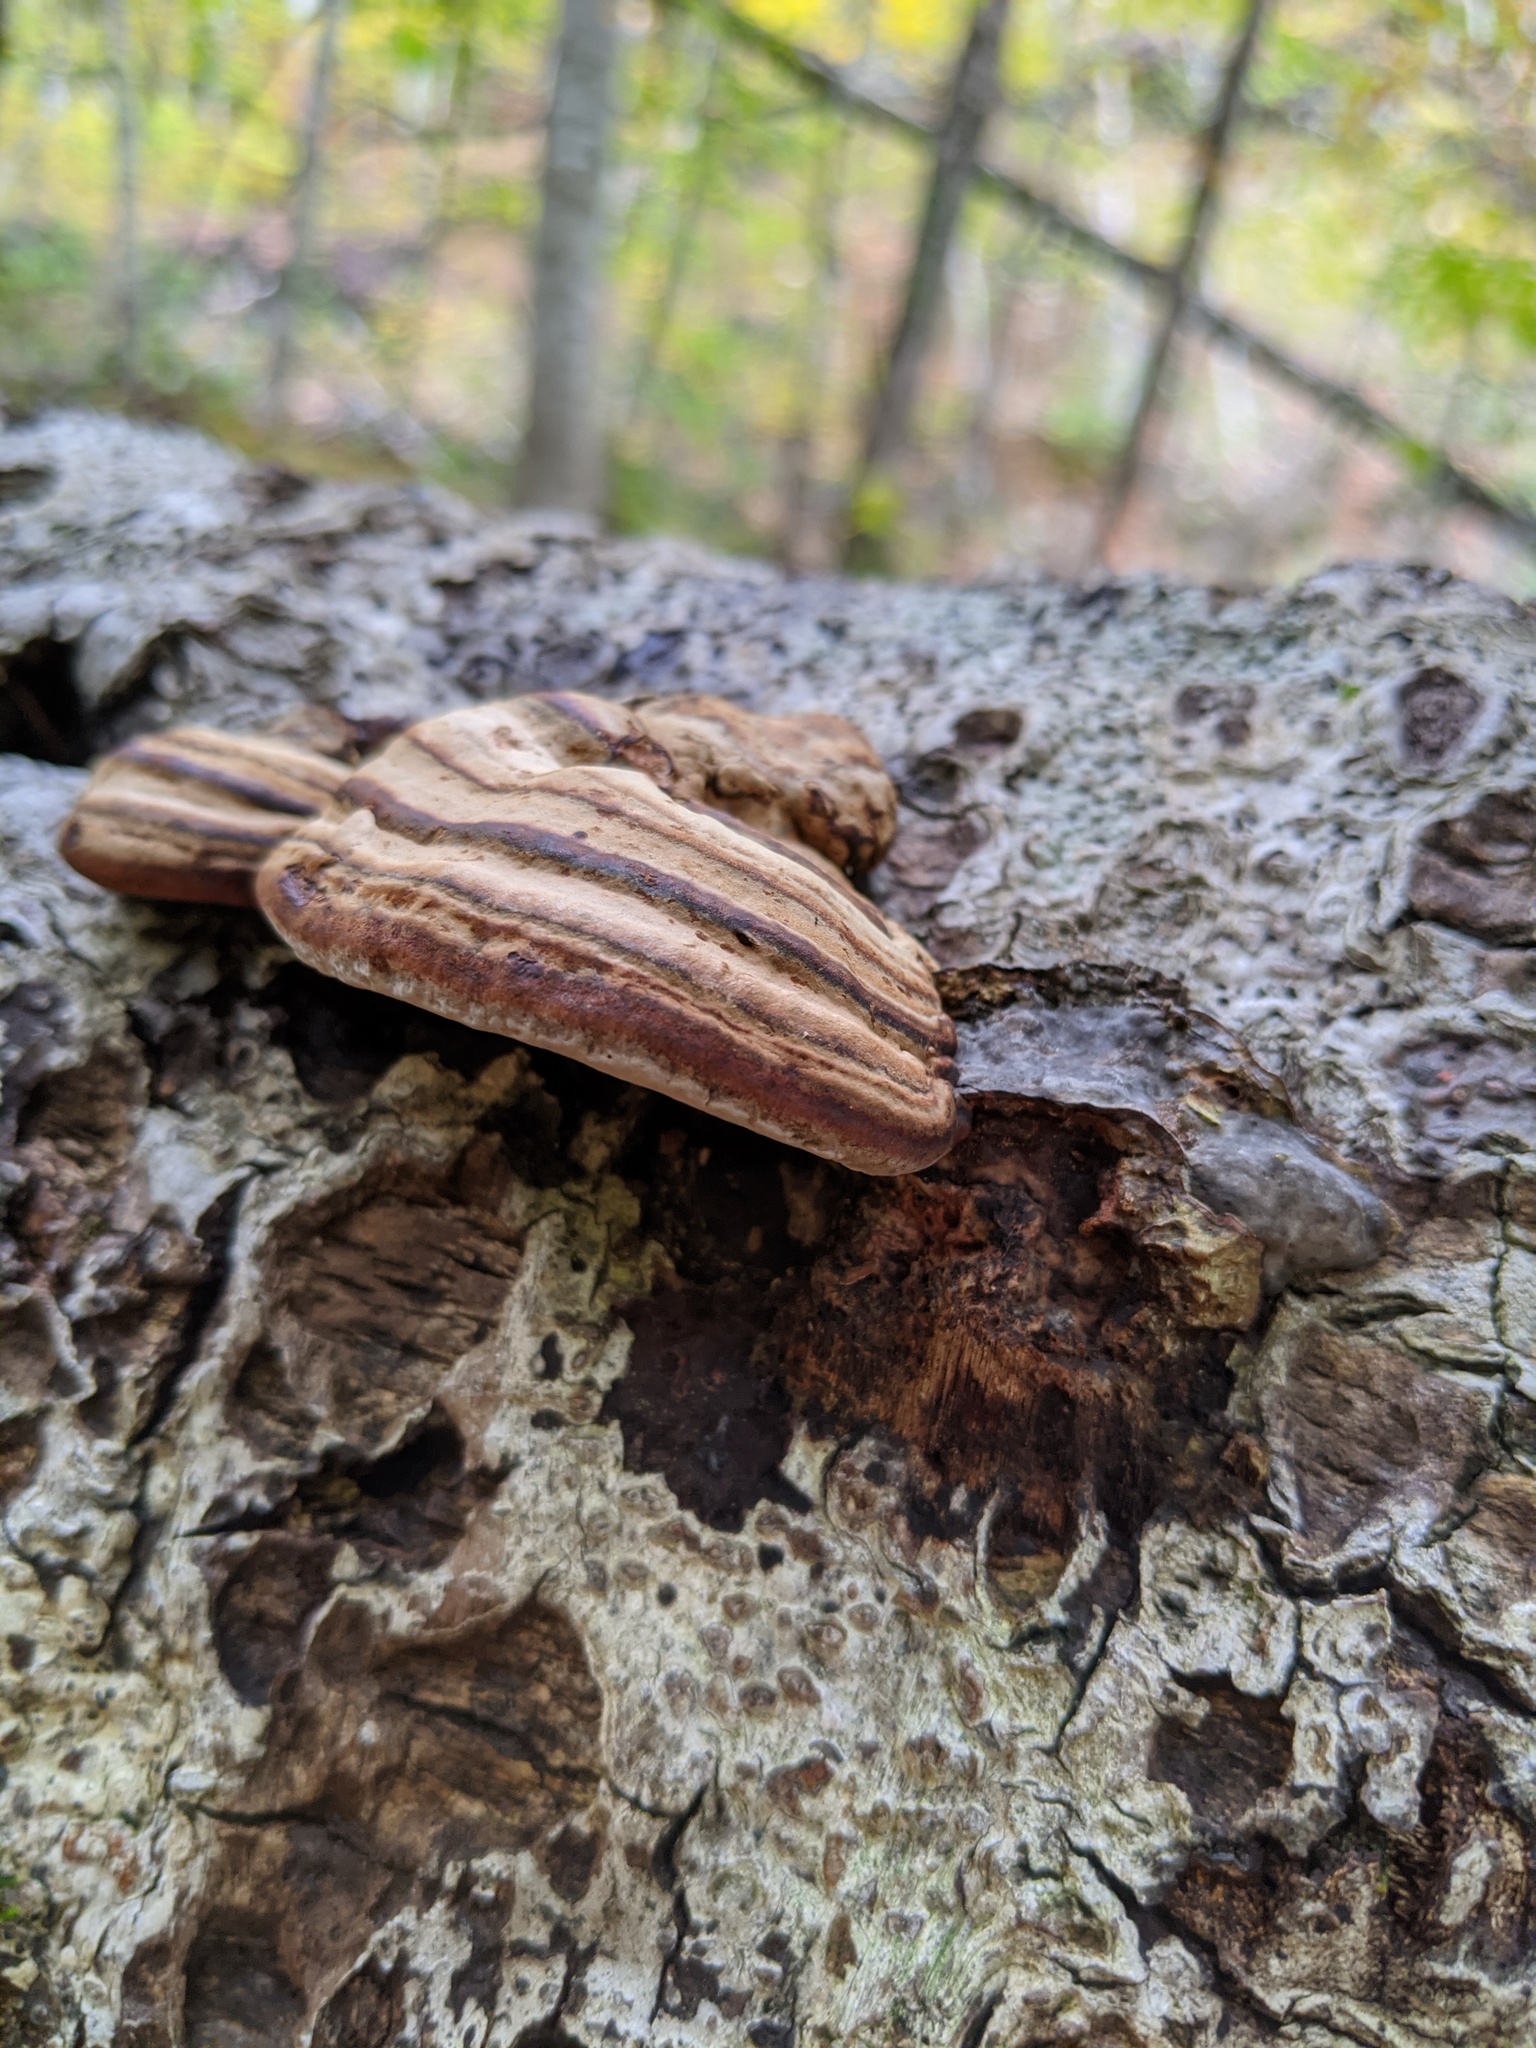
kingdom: Fungi
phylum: Basidiomycota
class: Agaricomycetes
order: Polyporales
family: Polyporaceae
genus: Fomes
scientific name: Fomes fomentarius
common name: Hoof fungus
